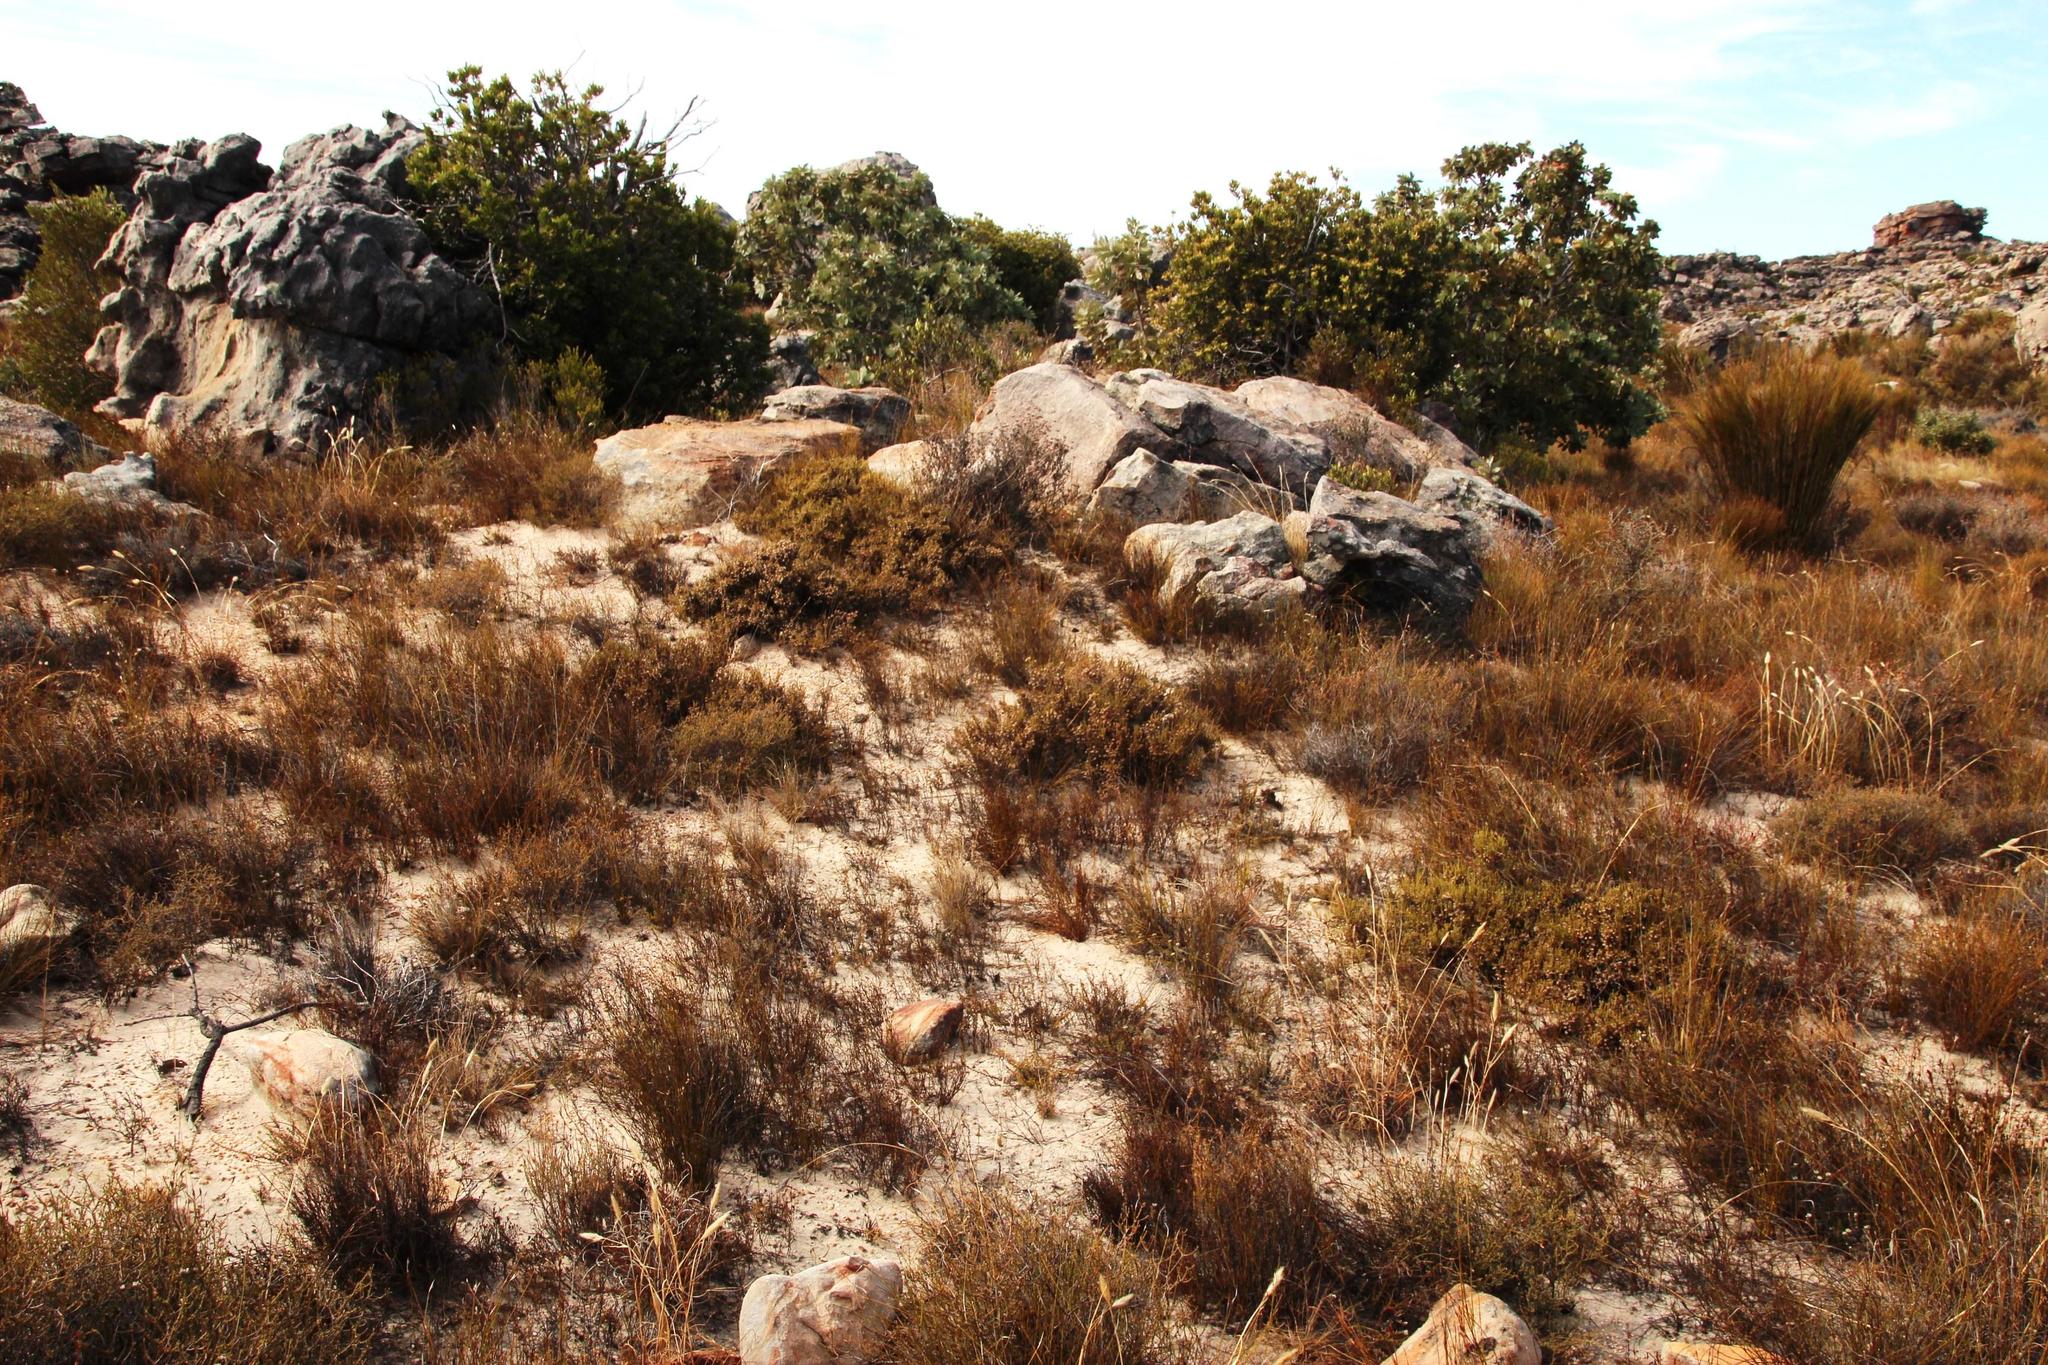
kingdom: Plantae
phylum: Tracheophyta
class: Magnoliopsida
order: Ericales
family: Ericaceae
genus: Erica
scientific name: Erica senilis
